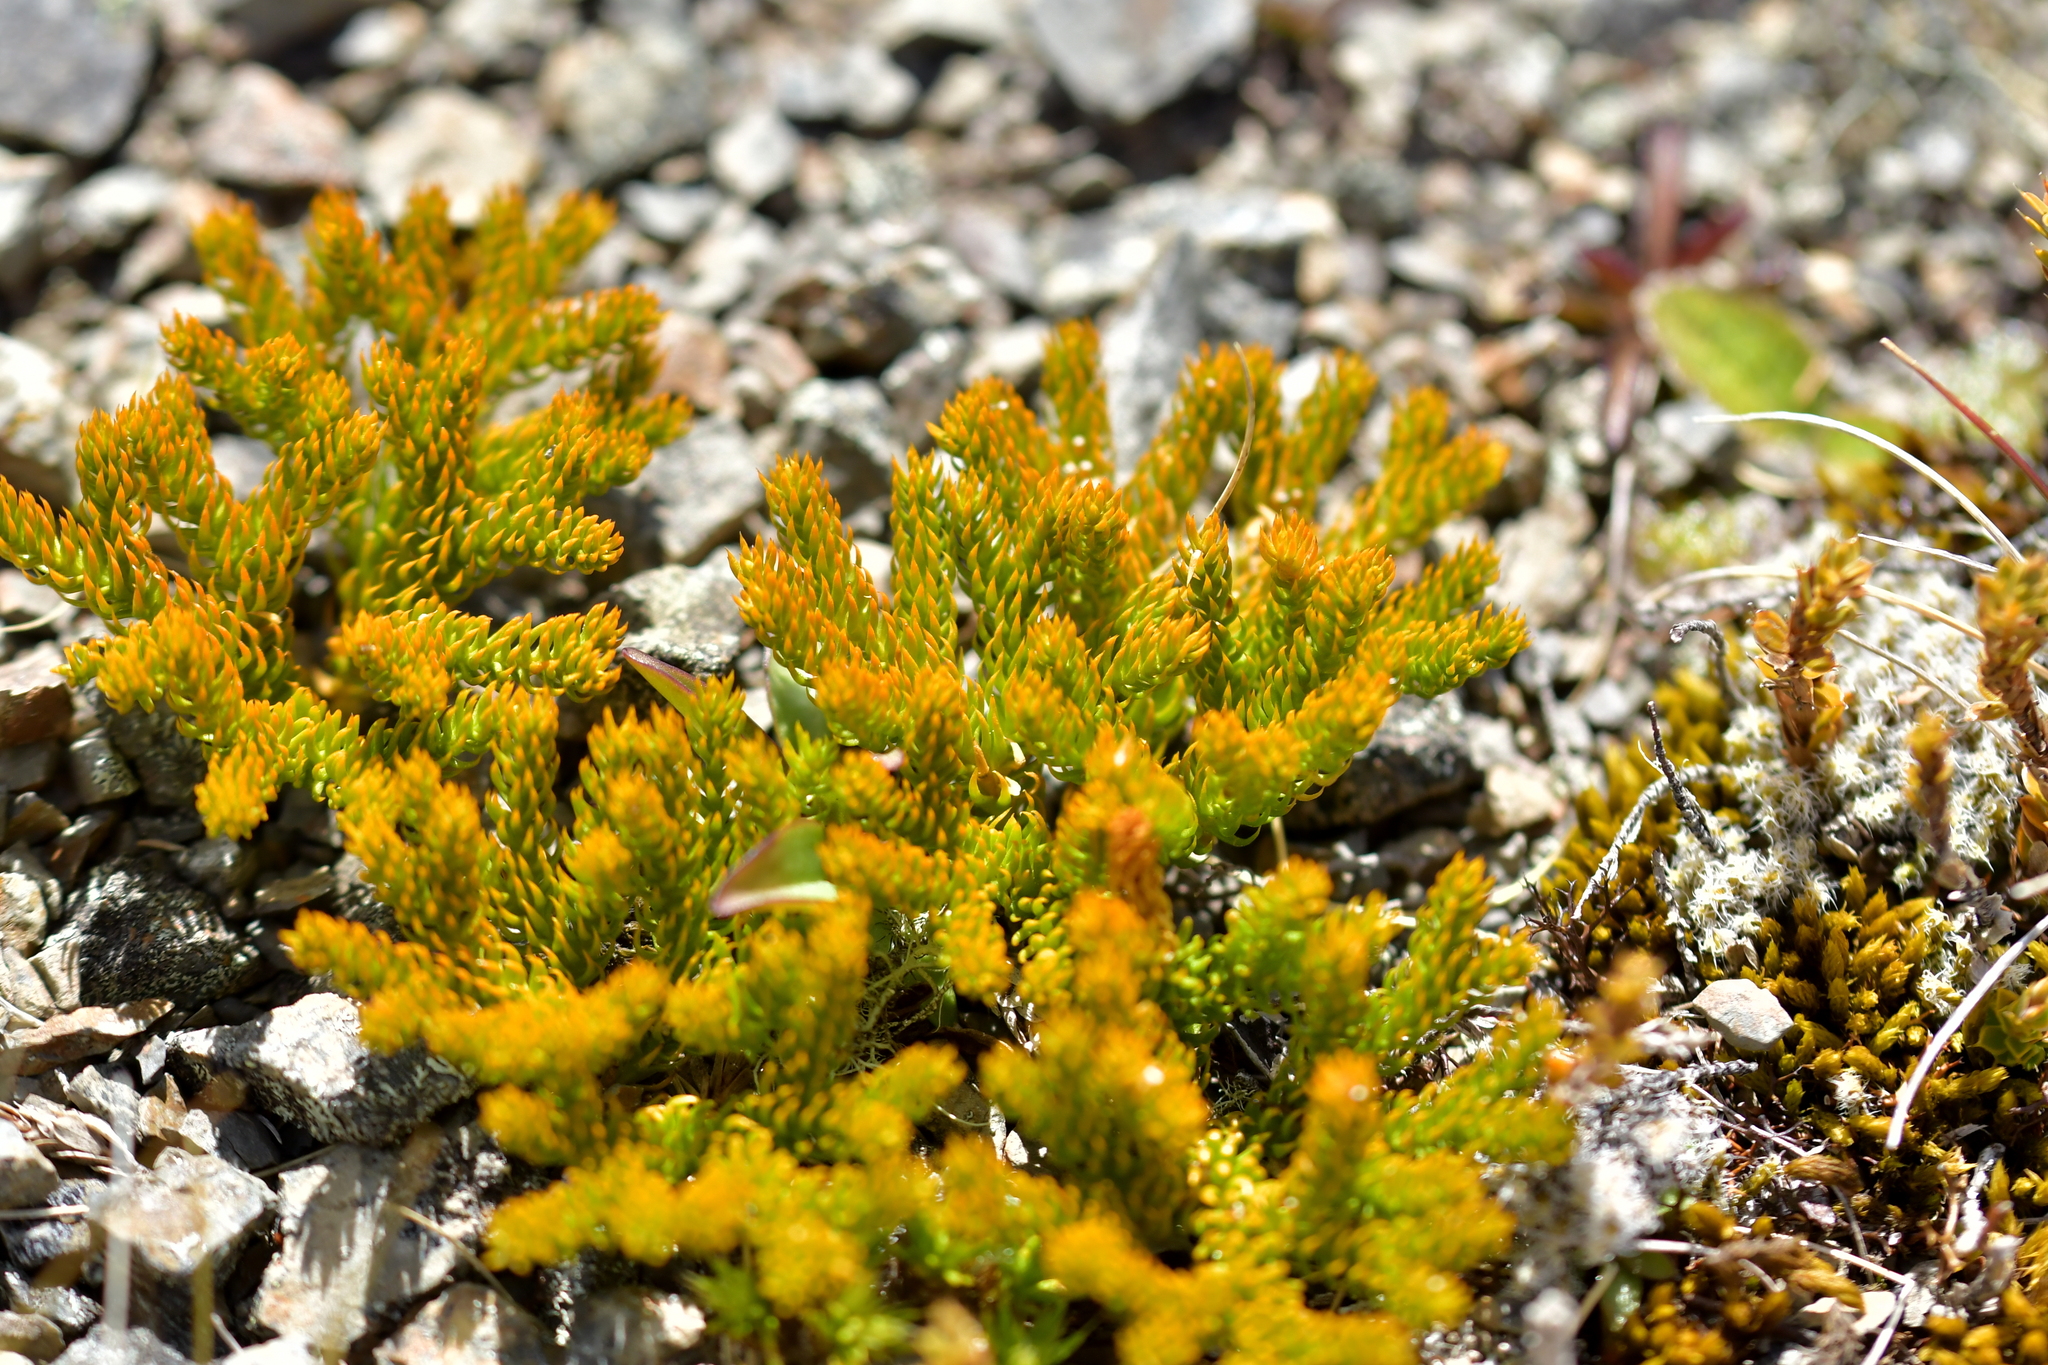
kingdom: Plantae
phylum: Tracheophyta
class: Lycopodiopsida
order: Lycopodiales
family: Lycopodiaceae
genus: Austrolycopodium
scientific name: Austrolycopodium fastigiatum
